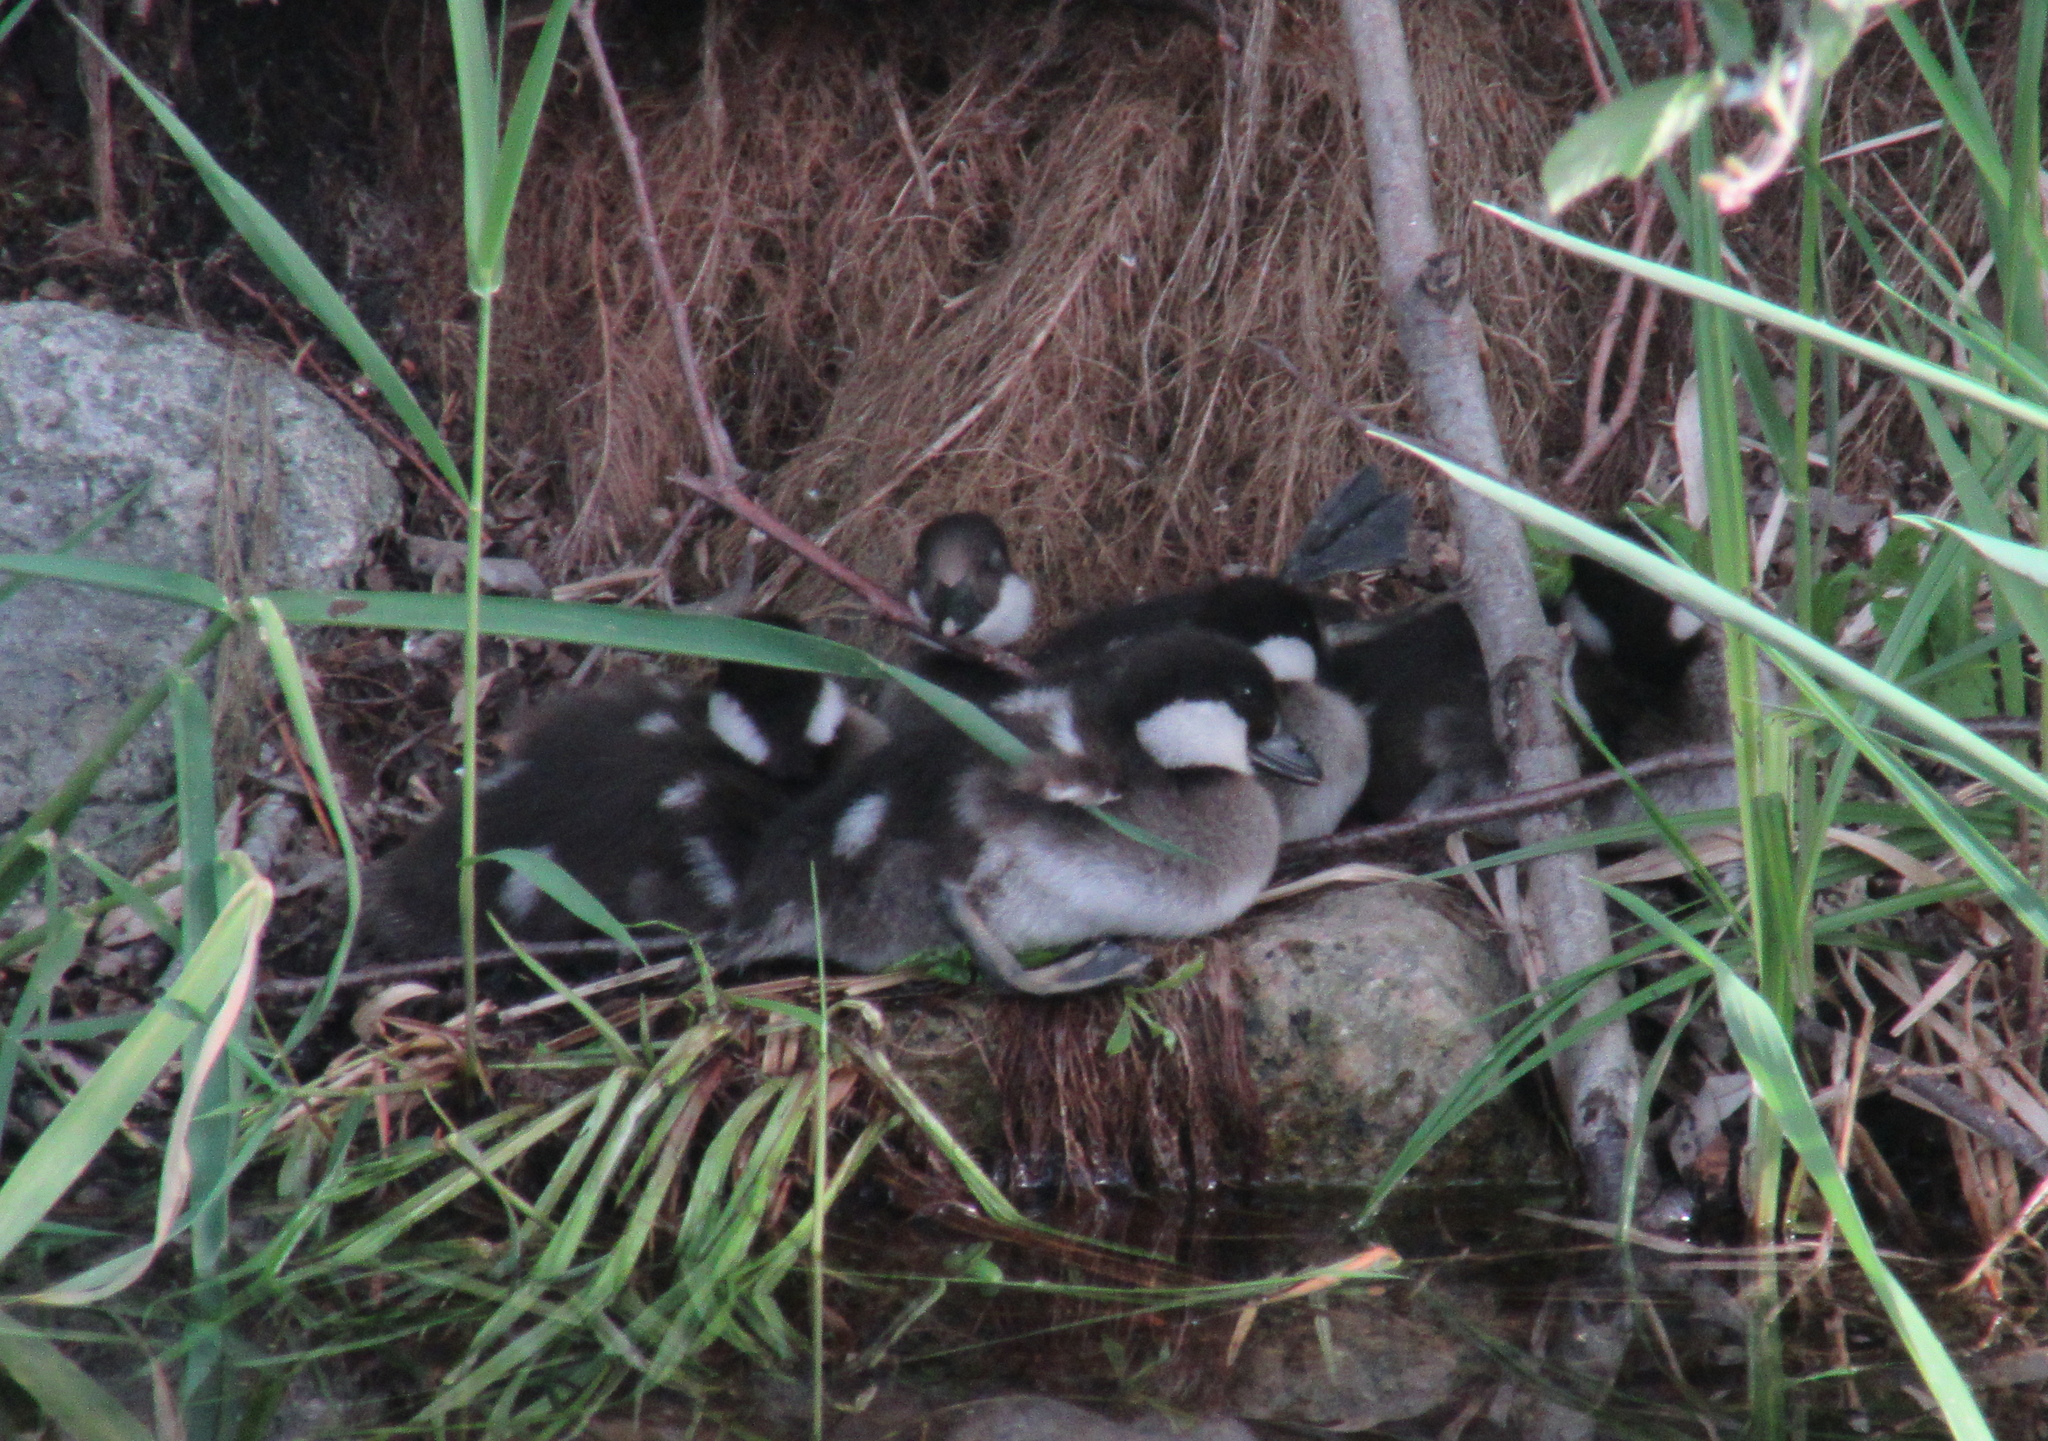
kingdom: Animalia
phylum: Chordata
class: Aves
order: Anseriformes
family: Anatidae
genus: Bucephala
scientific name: Bucephala clangula
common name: Common goldeneye
